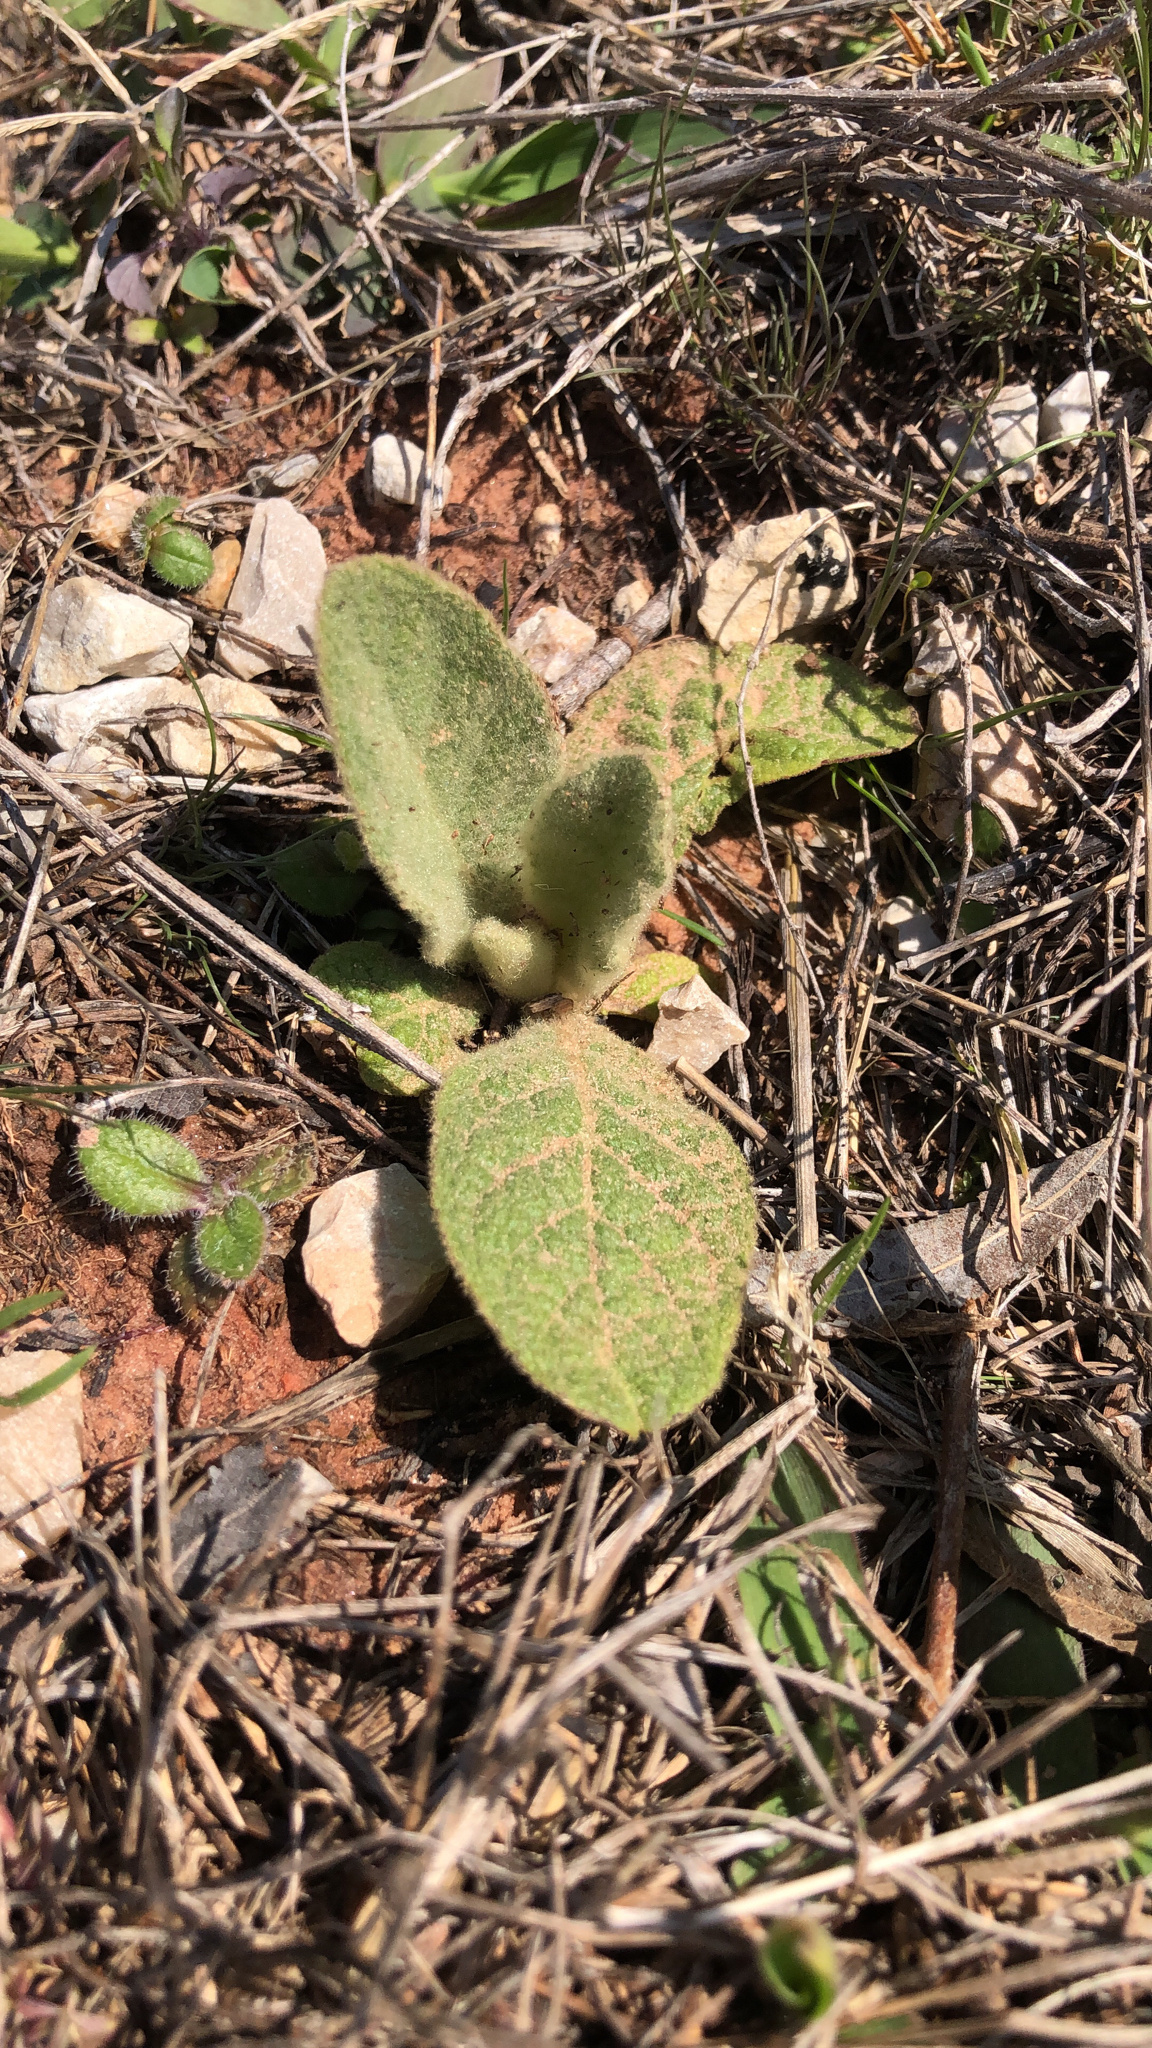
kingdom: Plantae
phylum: Tracheophyta
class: Magnoliopsida
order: Lamiales
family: Scrophulariaceae
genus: Verbascum
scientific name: Verbascum thapsus
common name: Common mullein
